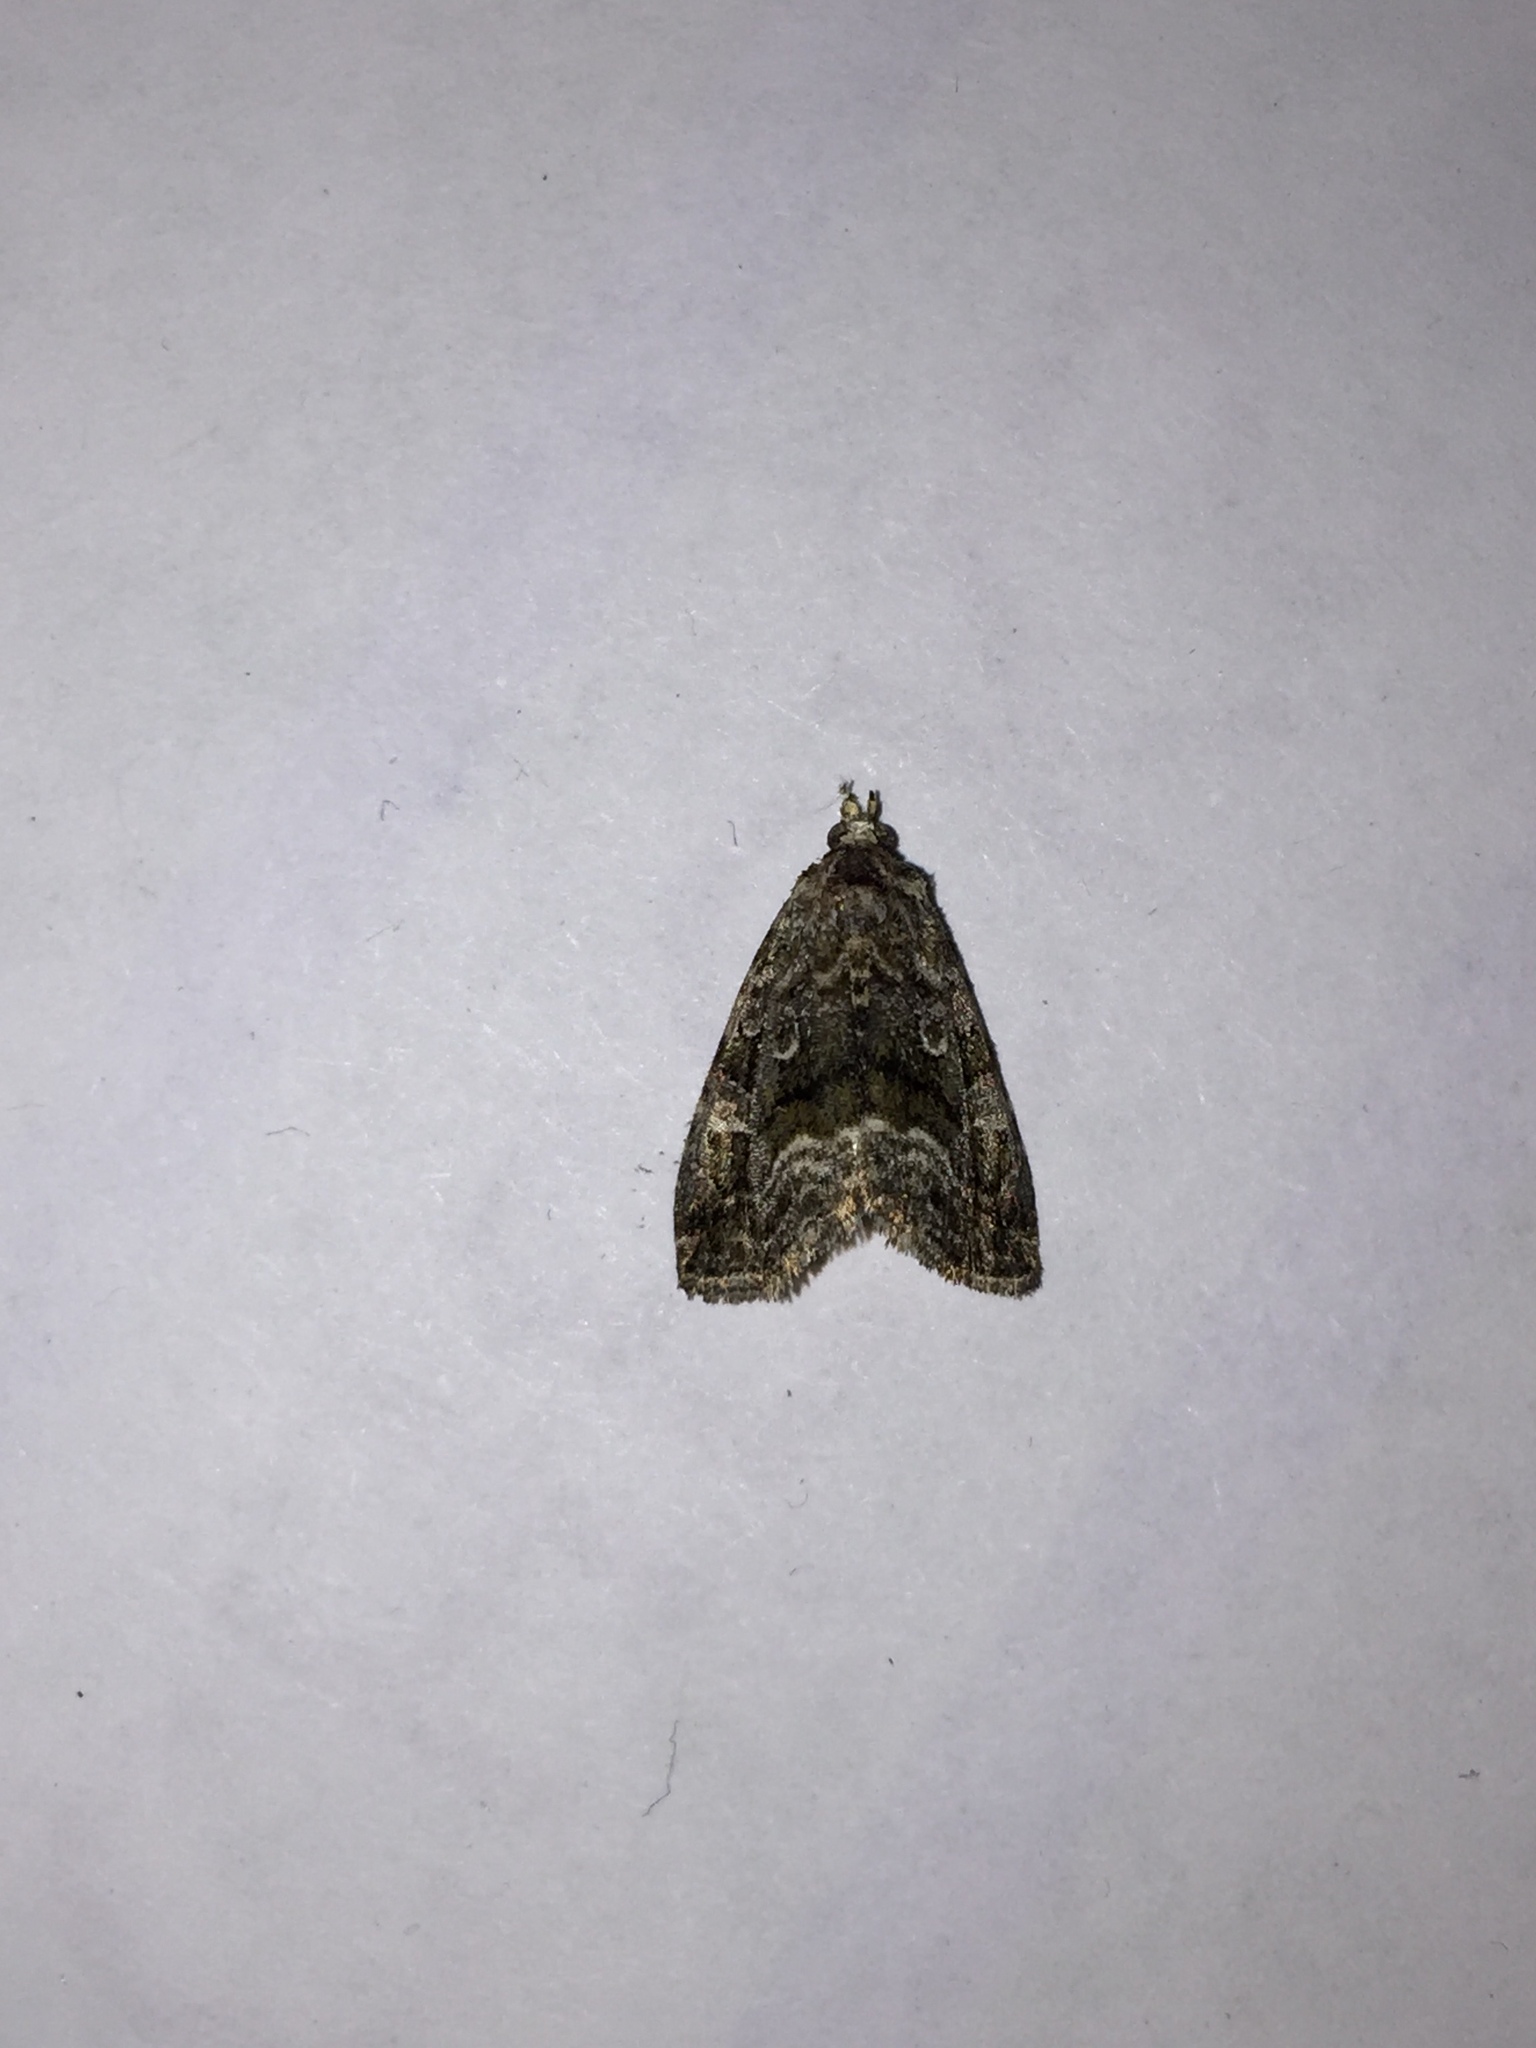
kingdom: Animalia
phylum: Arthropoda
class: Insecta
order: Lepidoptera
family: Noctuidae
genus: Protodeltote
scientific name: Protodeltote muscosula
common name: Large mossy glyph
